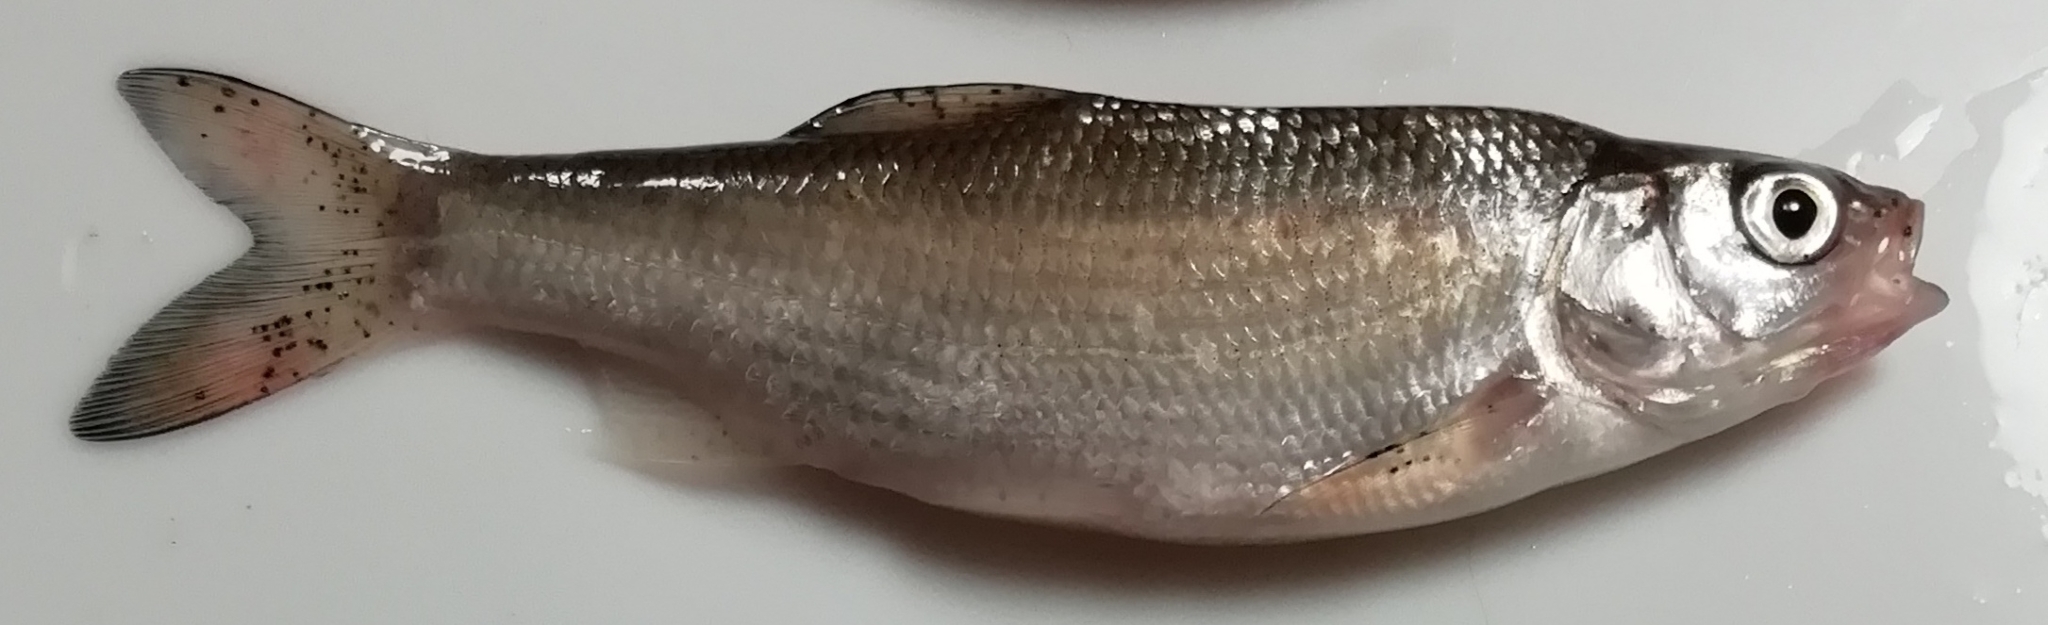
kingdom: Animalia
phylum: Chordata
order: Cypriniformes
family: Cyprinidae
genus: Leuciscus
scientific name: Leuciscus idus
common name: Ide
